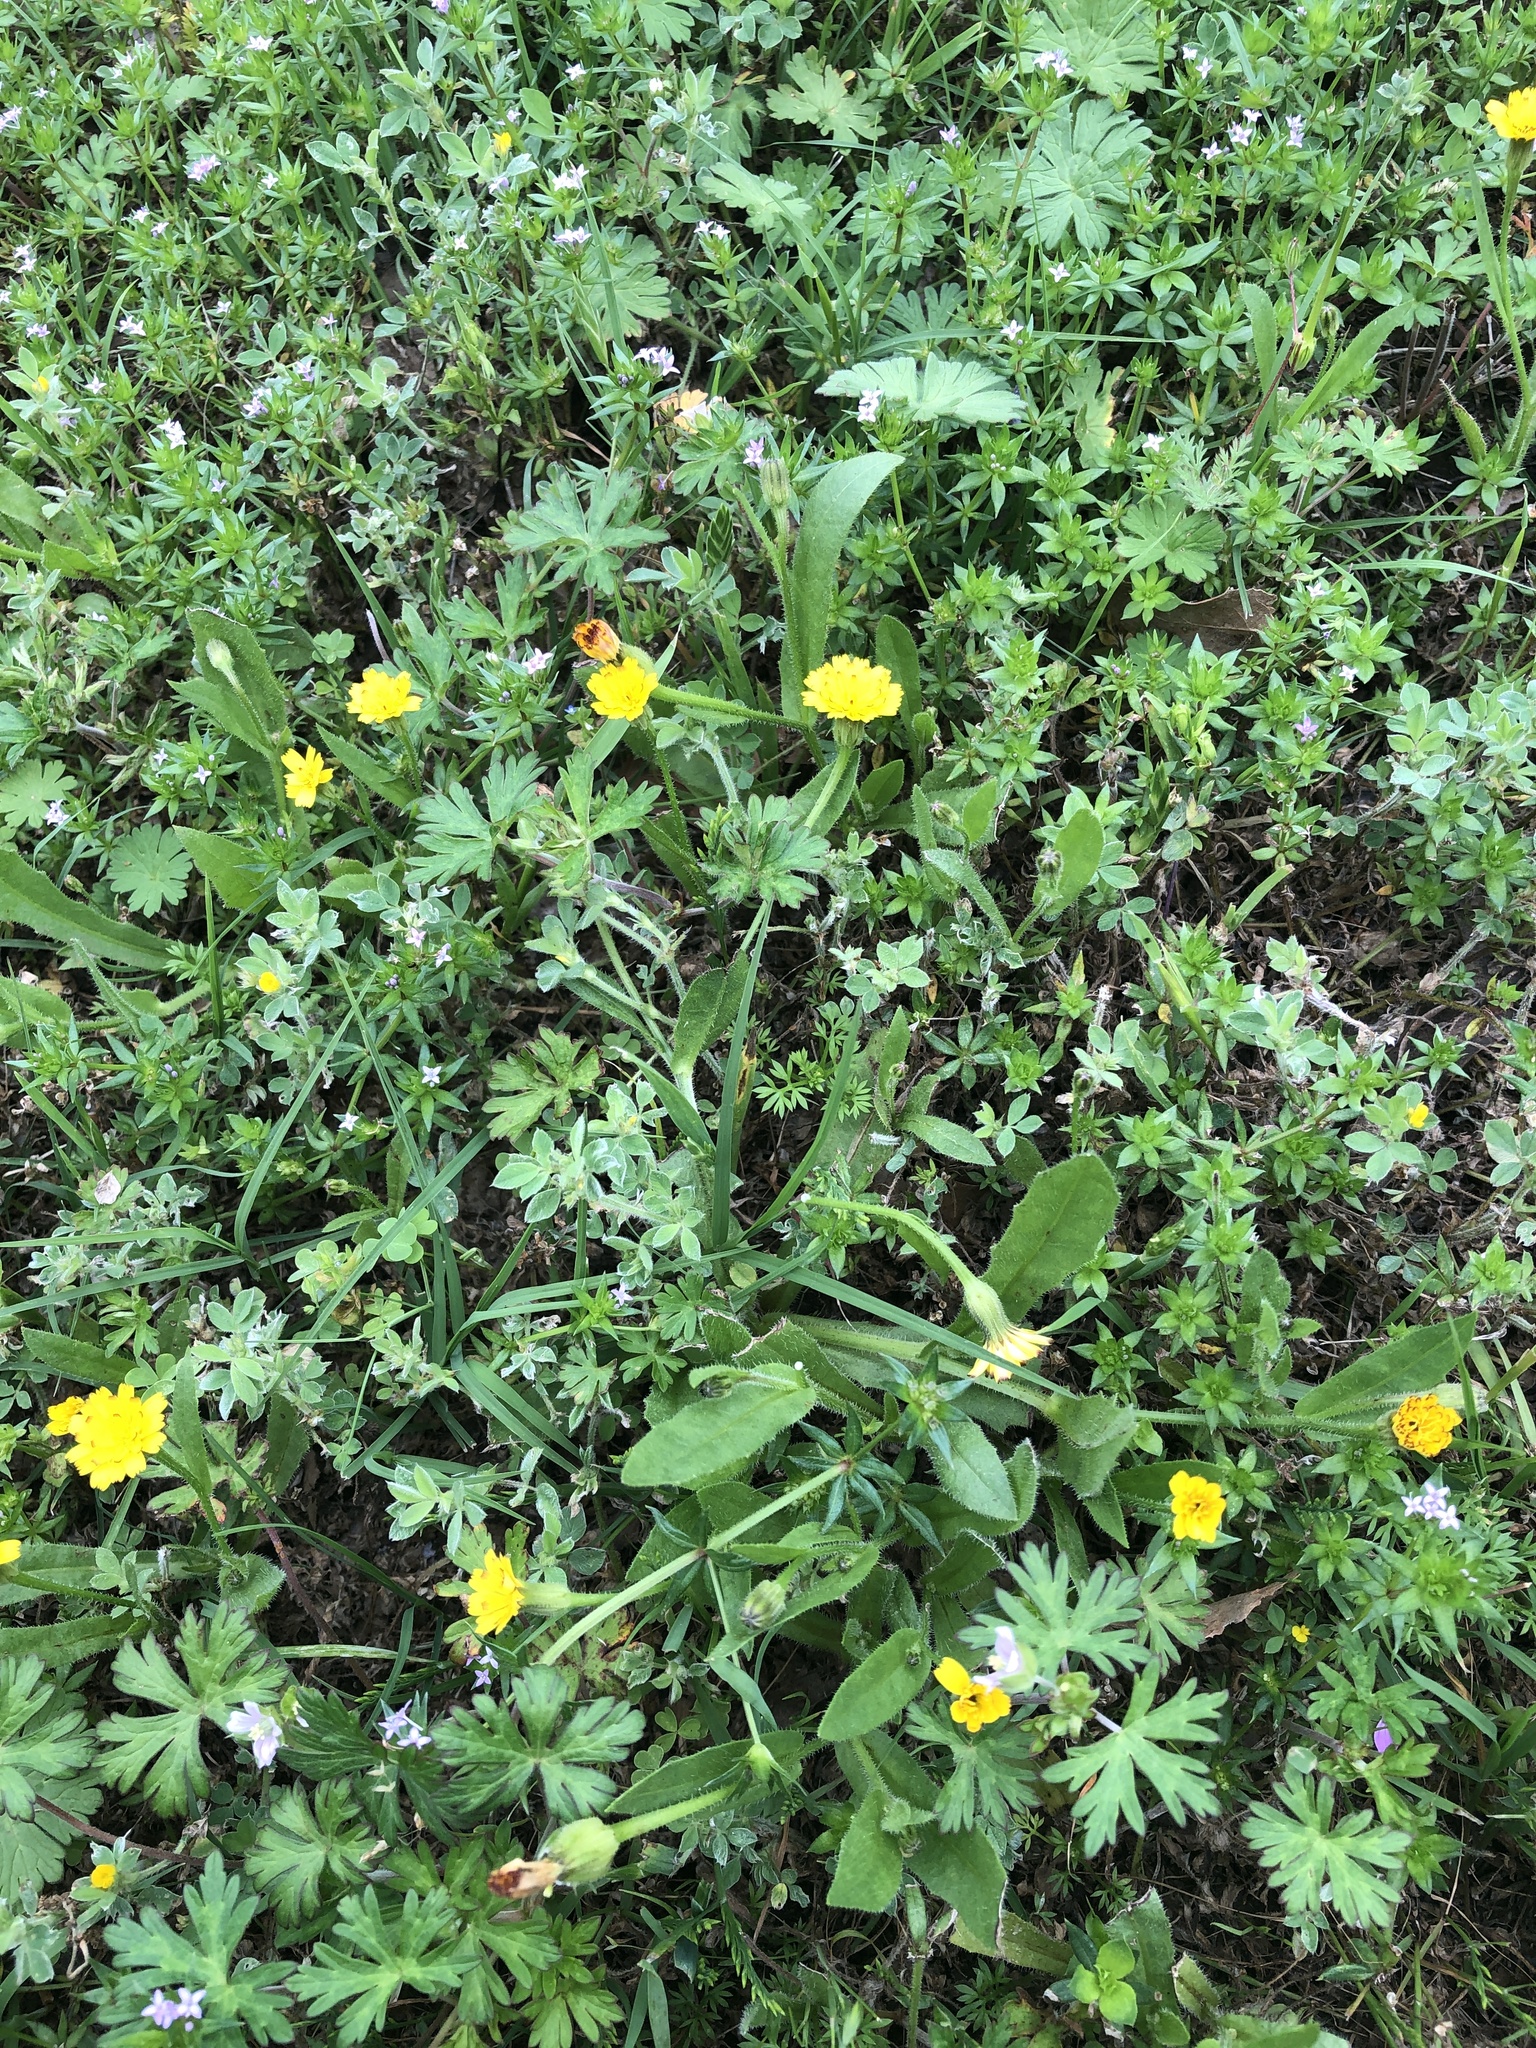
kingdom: Plantae
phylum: Tracheophyta
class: Magnoliopsida
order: Asterales
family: Asteraceae
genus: Hedypnois
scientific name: Hedypnois rhagadioloides
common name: Cretan weed
